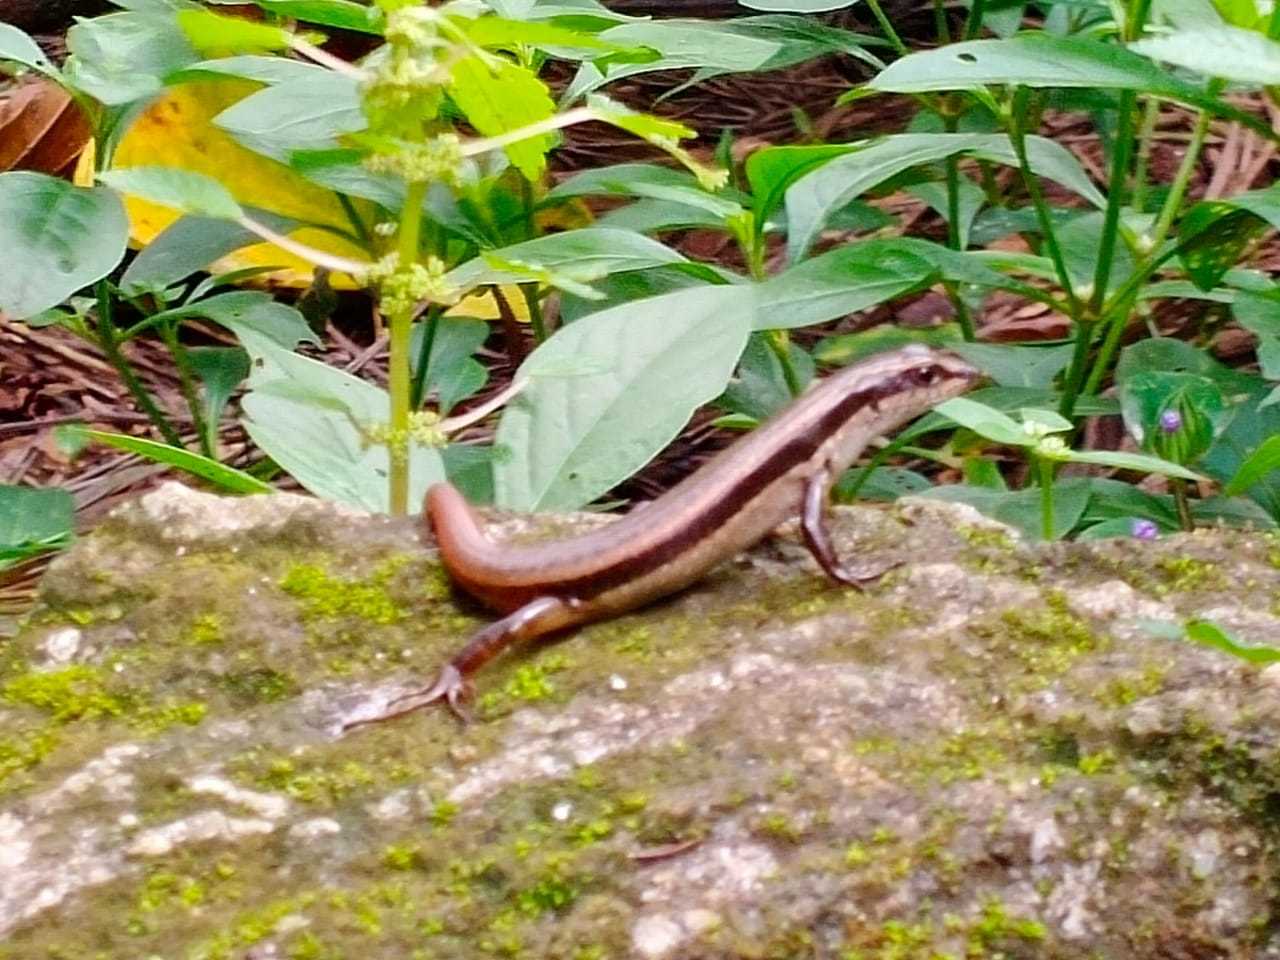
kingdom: Animalia
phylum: Chordata
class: Squamata
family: Scincidae
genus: Sphenomorphus
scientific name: Sphenomorphus dussumieri
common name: Dussumier's forest skink
